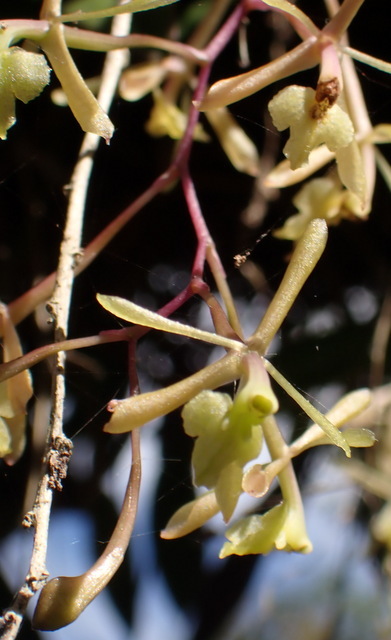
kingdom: Plantae
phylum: Tracheophyta
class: Liliopsida
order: Asparagales
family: Orchidaceae
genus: Epidendrum
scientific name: Epidendrum conopseum
